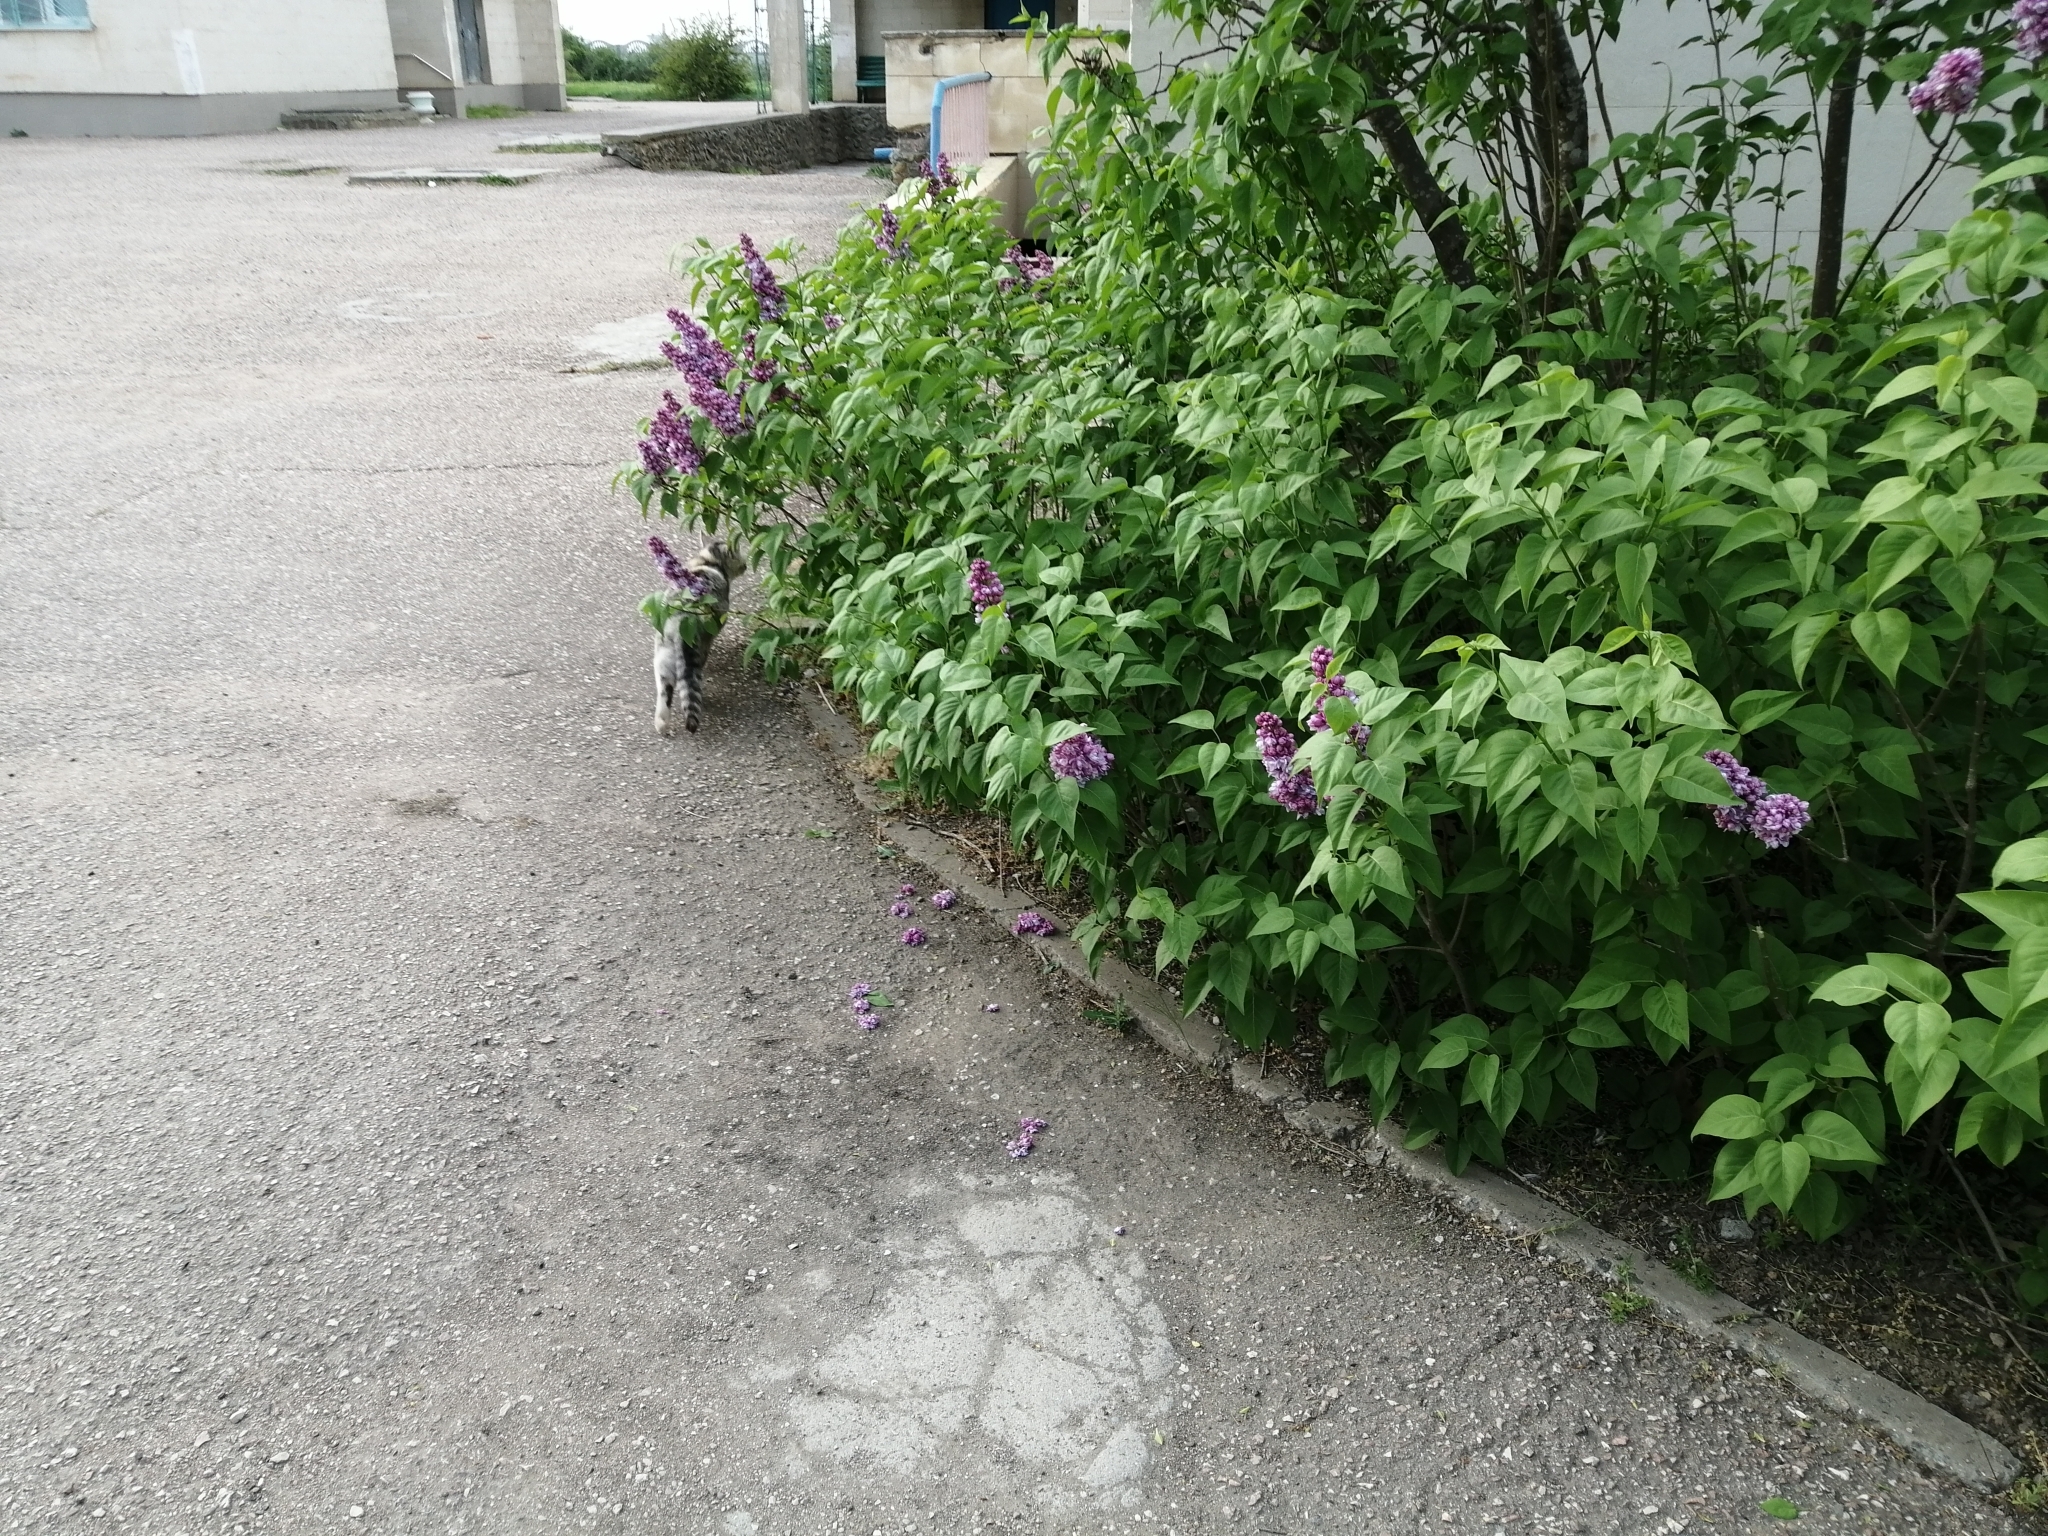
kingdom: Animalia
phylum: Chordata
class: Mammalia
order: Carnivora
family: Felidae
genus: Felis
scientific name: Felis catus
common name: Domestic cat
